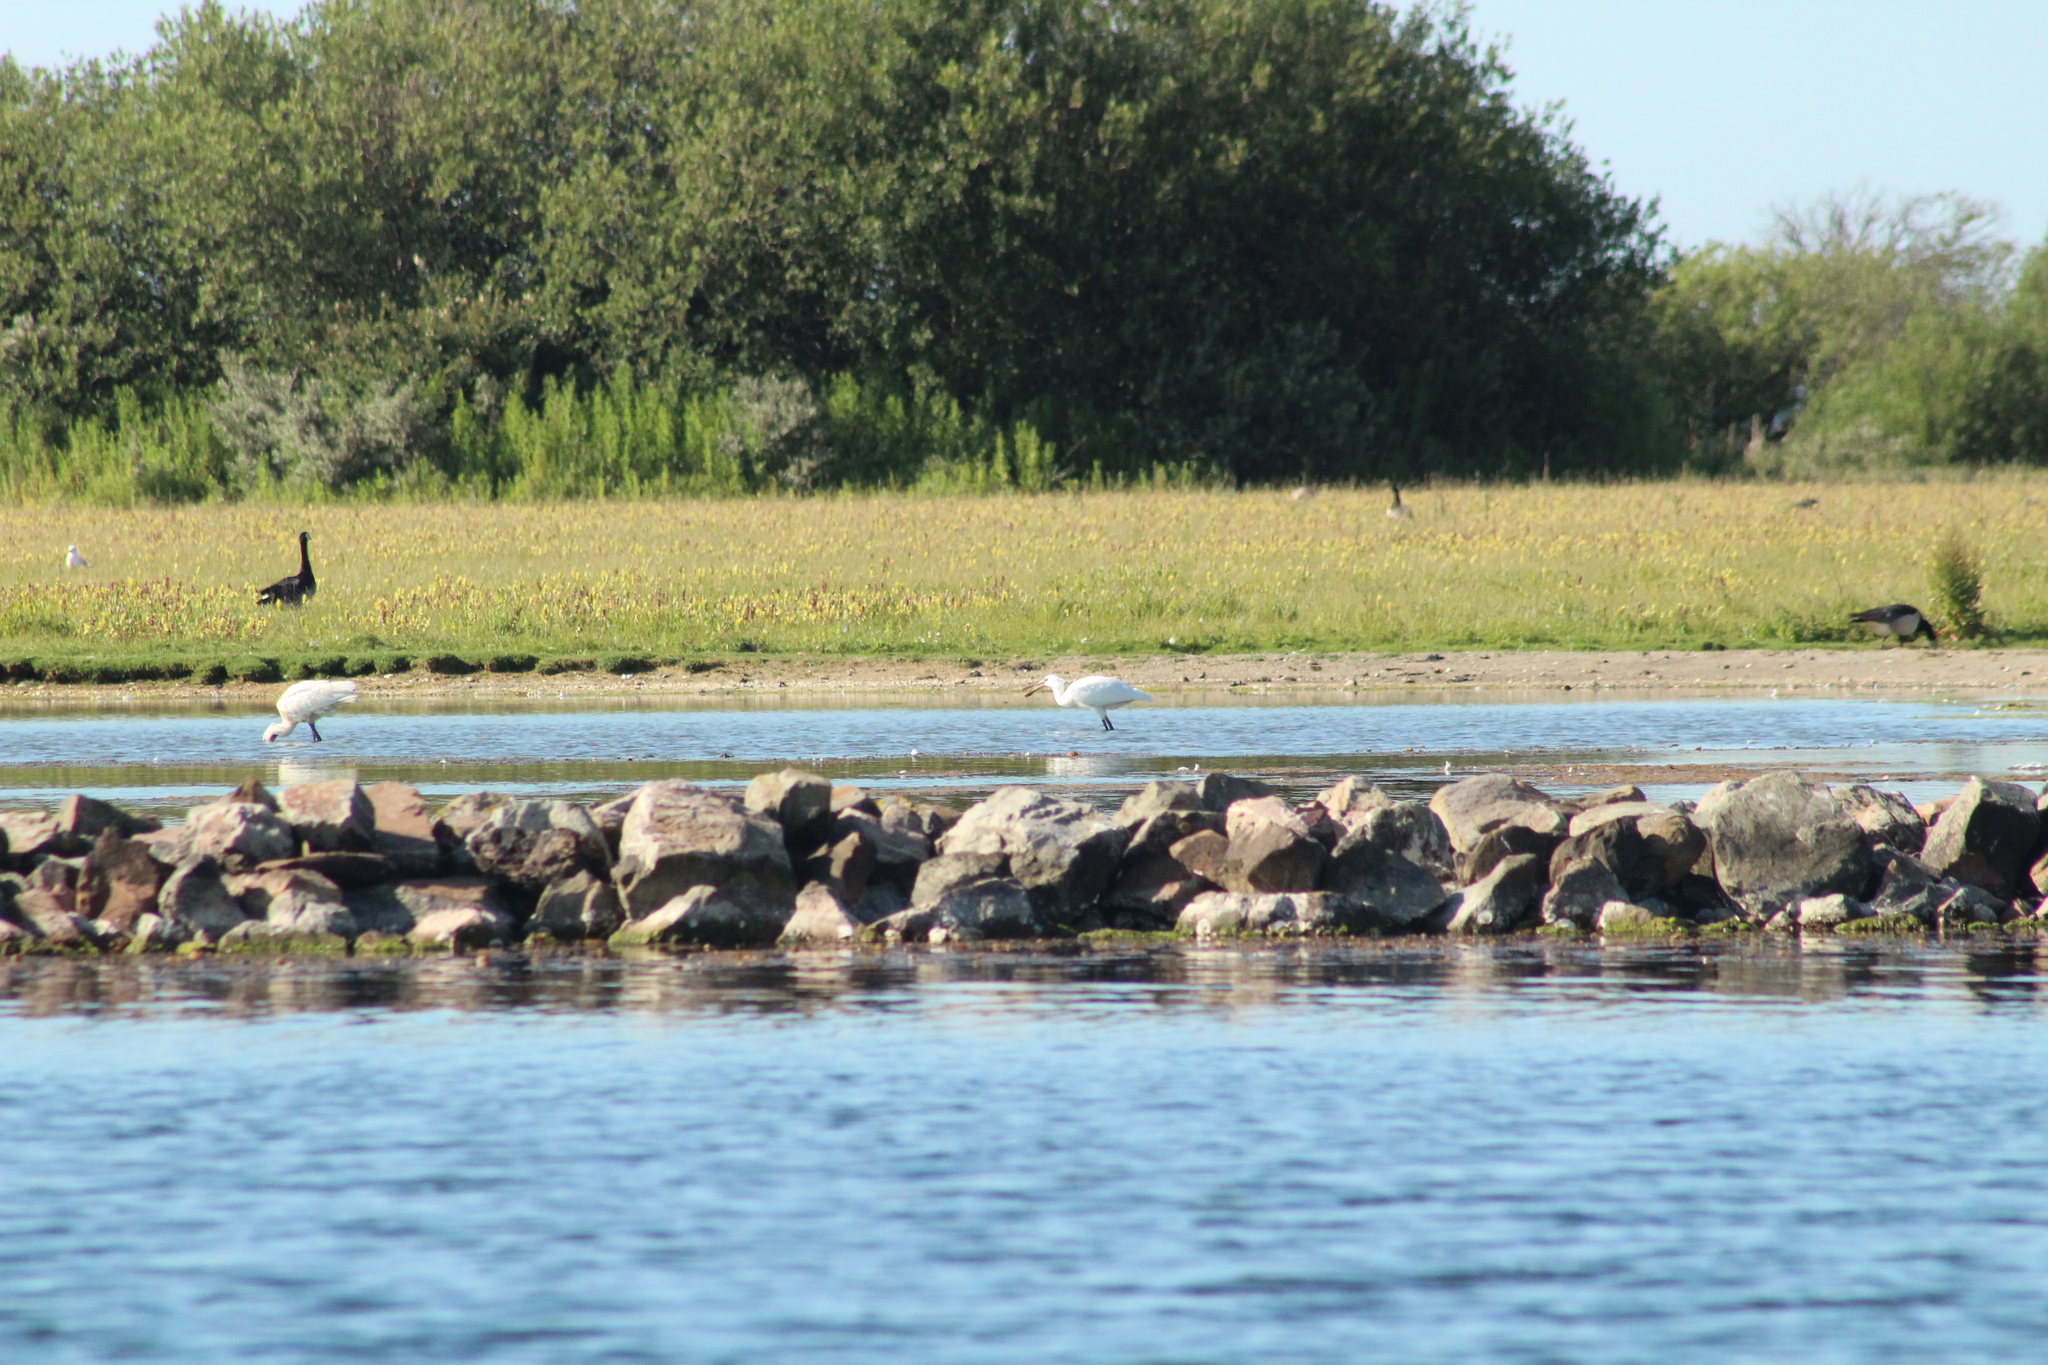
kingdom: Animalia
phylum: Chordata
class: Aves
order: Pelecaniformes
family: Threskiornithidae
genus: Platalea
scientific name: Platalea leucorodia
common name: Eurasian spoonbill
